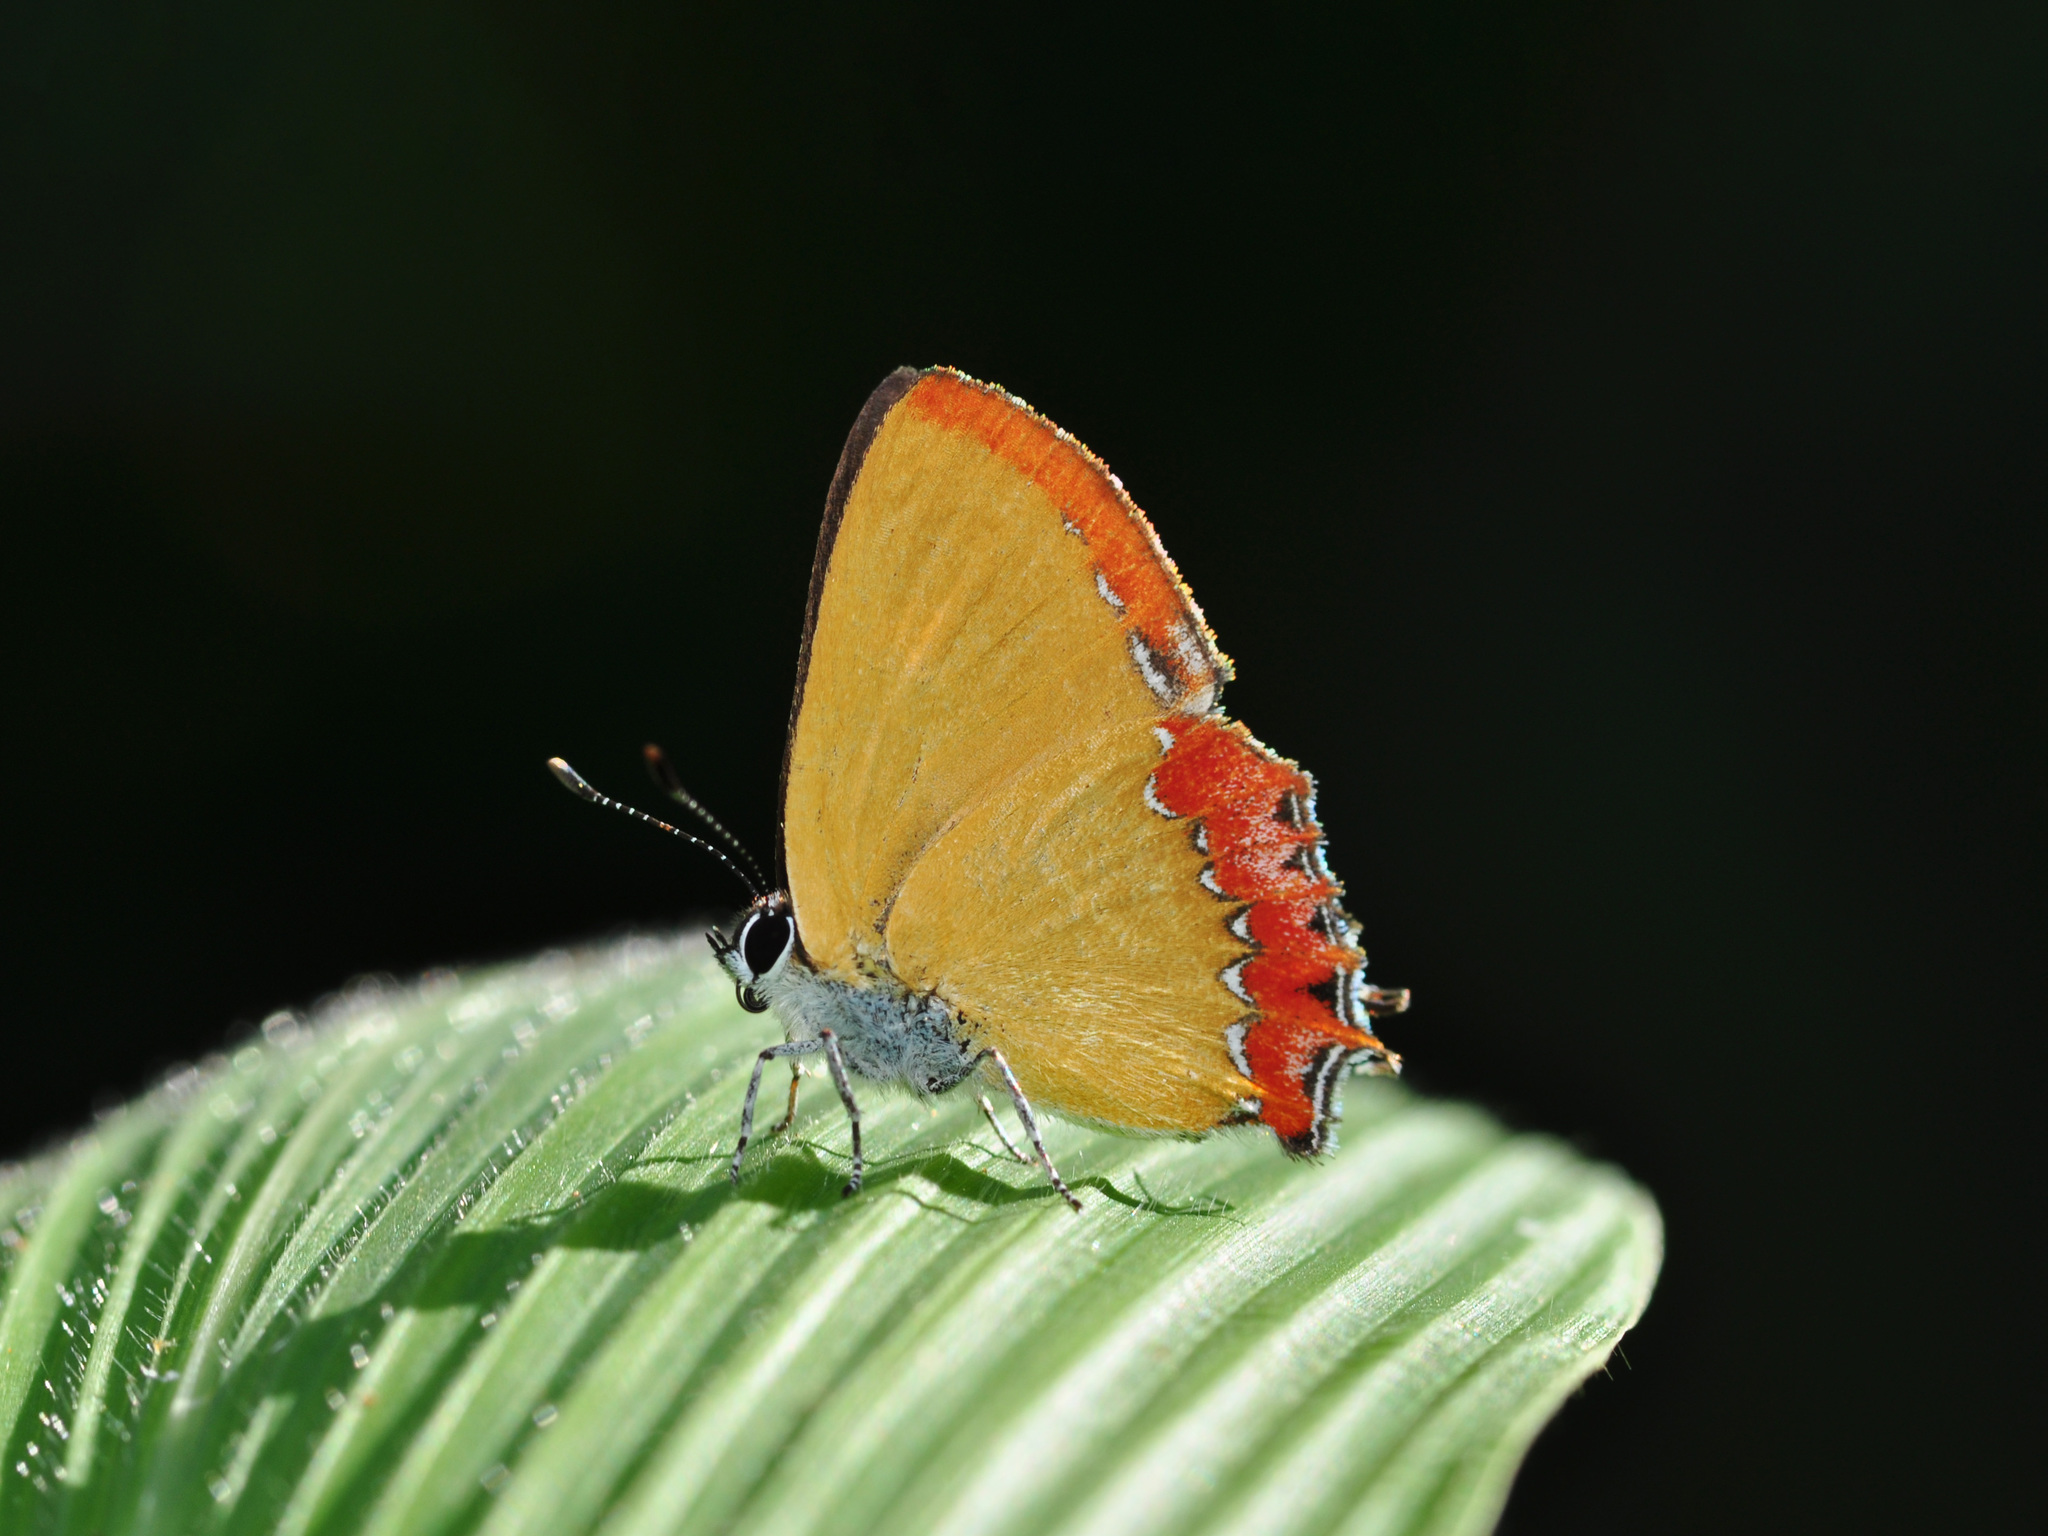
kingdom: Animalia
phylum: Arthropoda
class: Insecta
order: Lepidoptera
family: Lycaenidae
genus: Heliophorus
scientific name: Heliophorus epicles
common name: Purple sapphire
